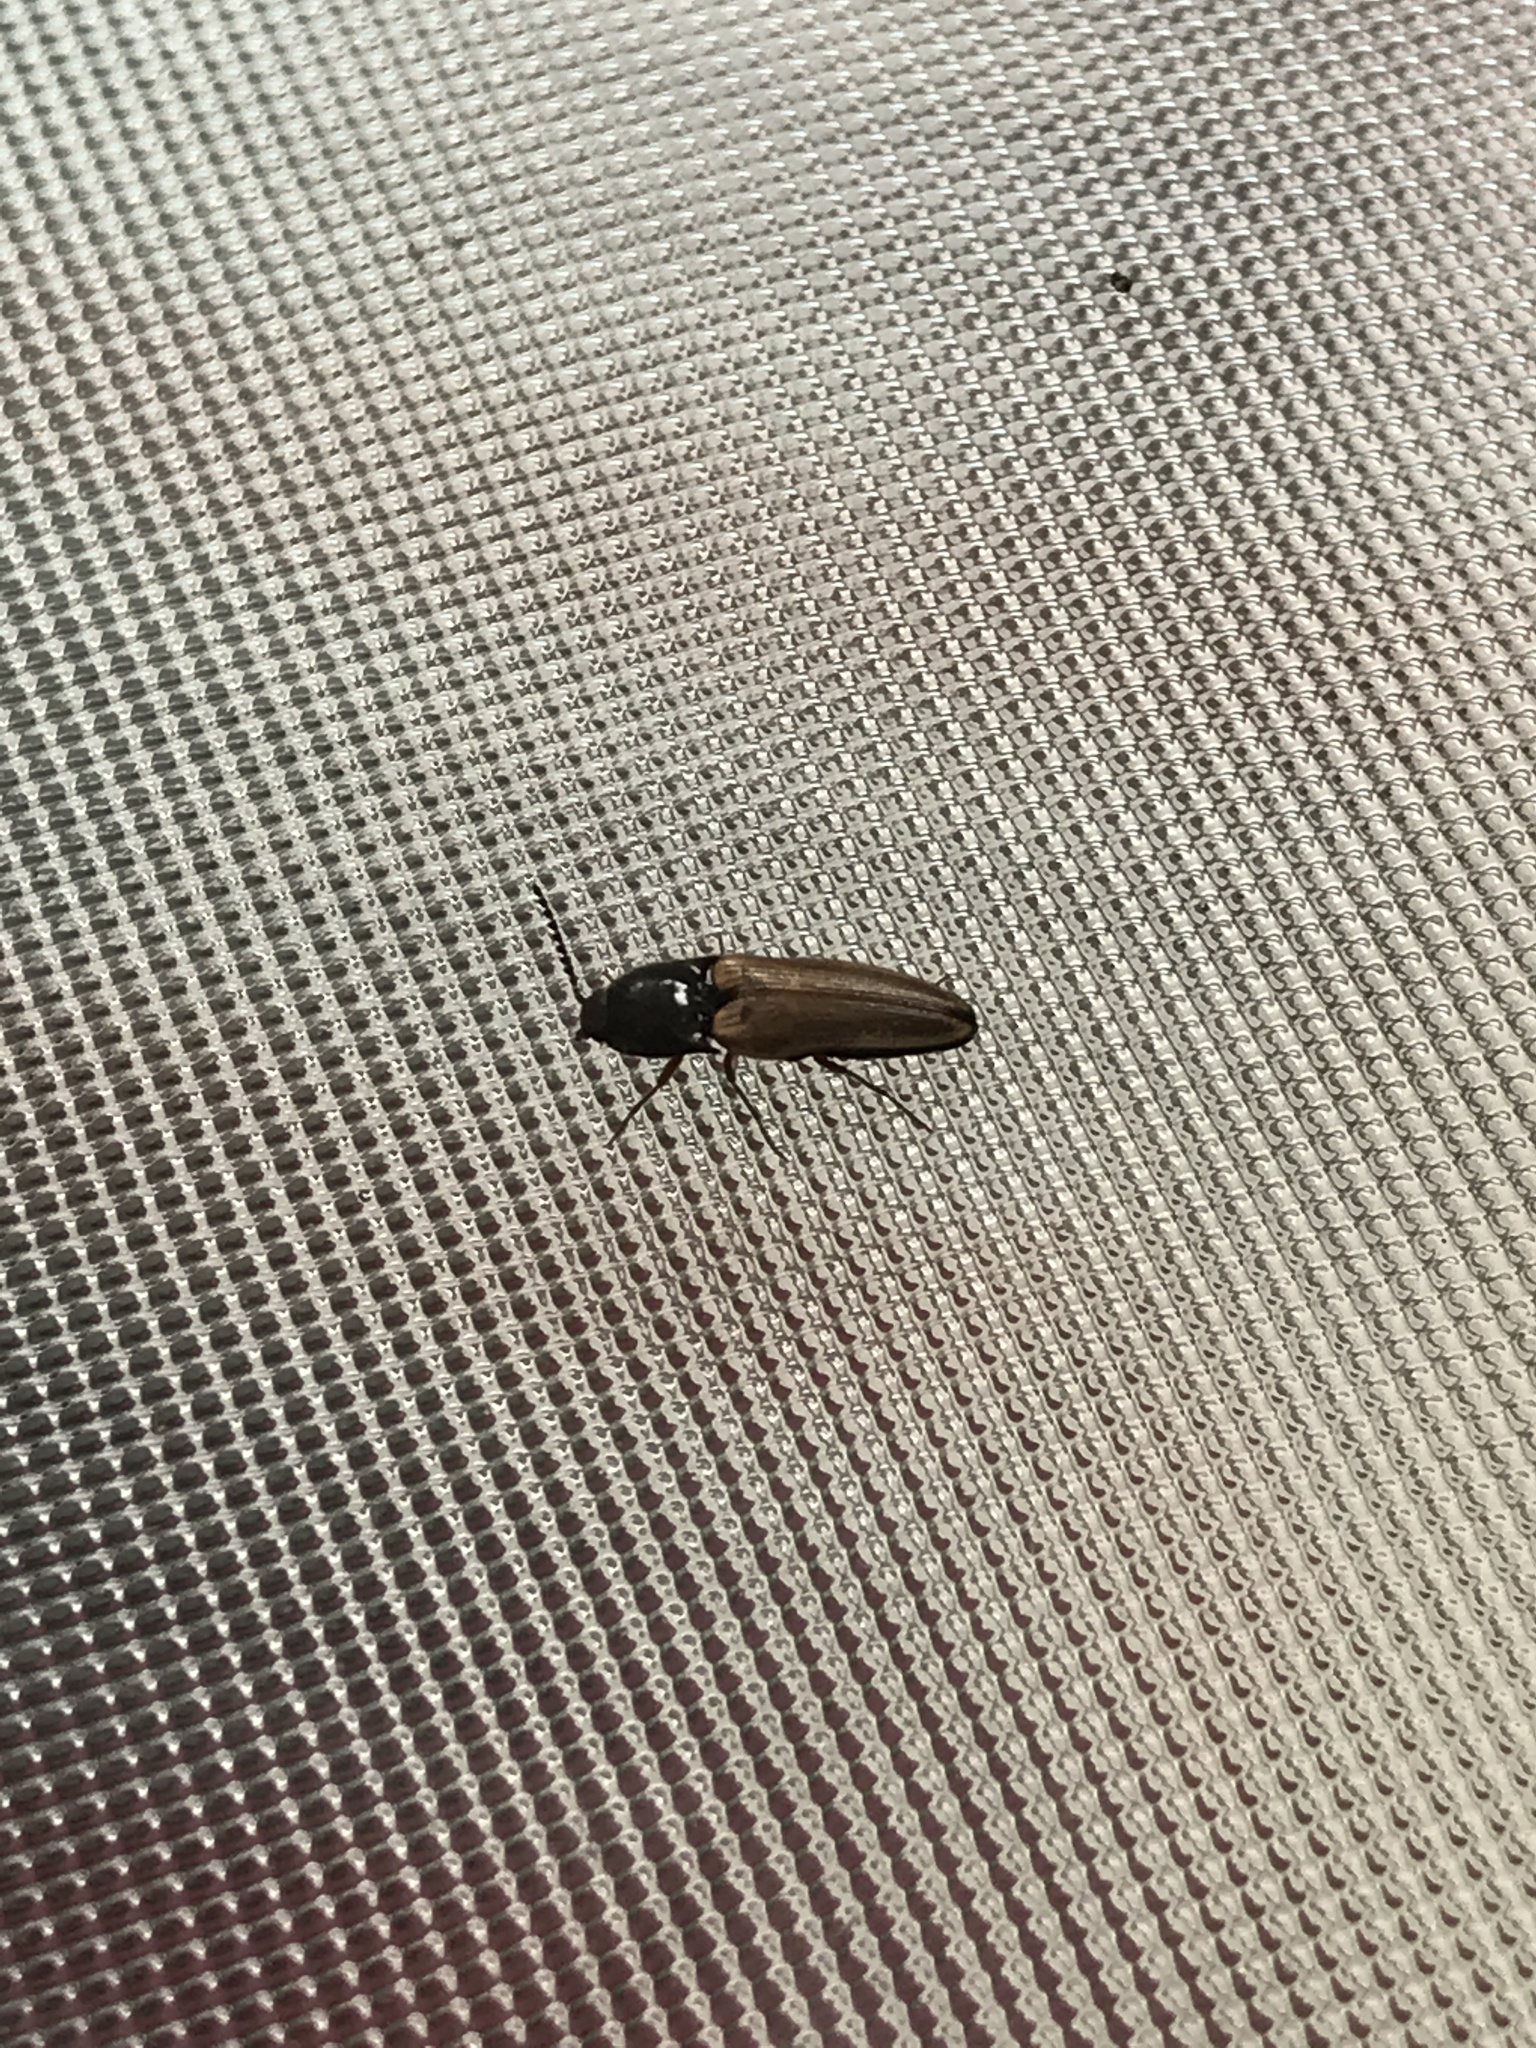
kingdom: Animalia
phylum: Arthropoda
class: Insecta
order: Coleoptera
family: Elateridae
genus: Ampedus
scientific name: Ampedus nigricollis
